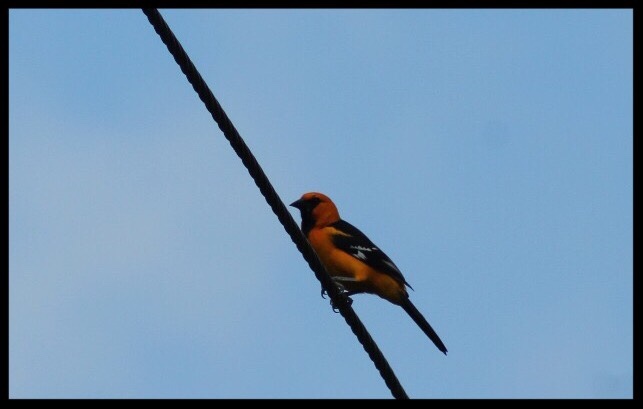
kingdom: Animalia
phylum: Chordata
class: Aves
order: Passeriformes
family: Icteridae
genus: Icterus
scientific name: Icterus gularis
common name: Altamira oriole
